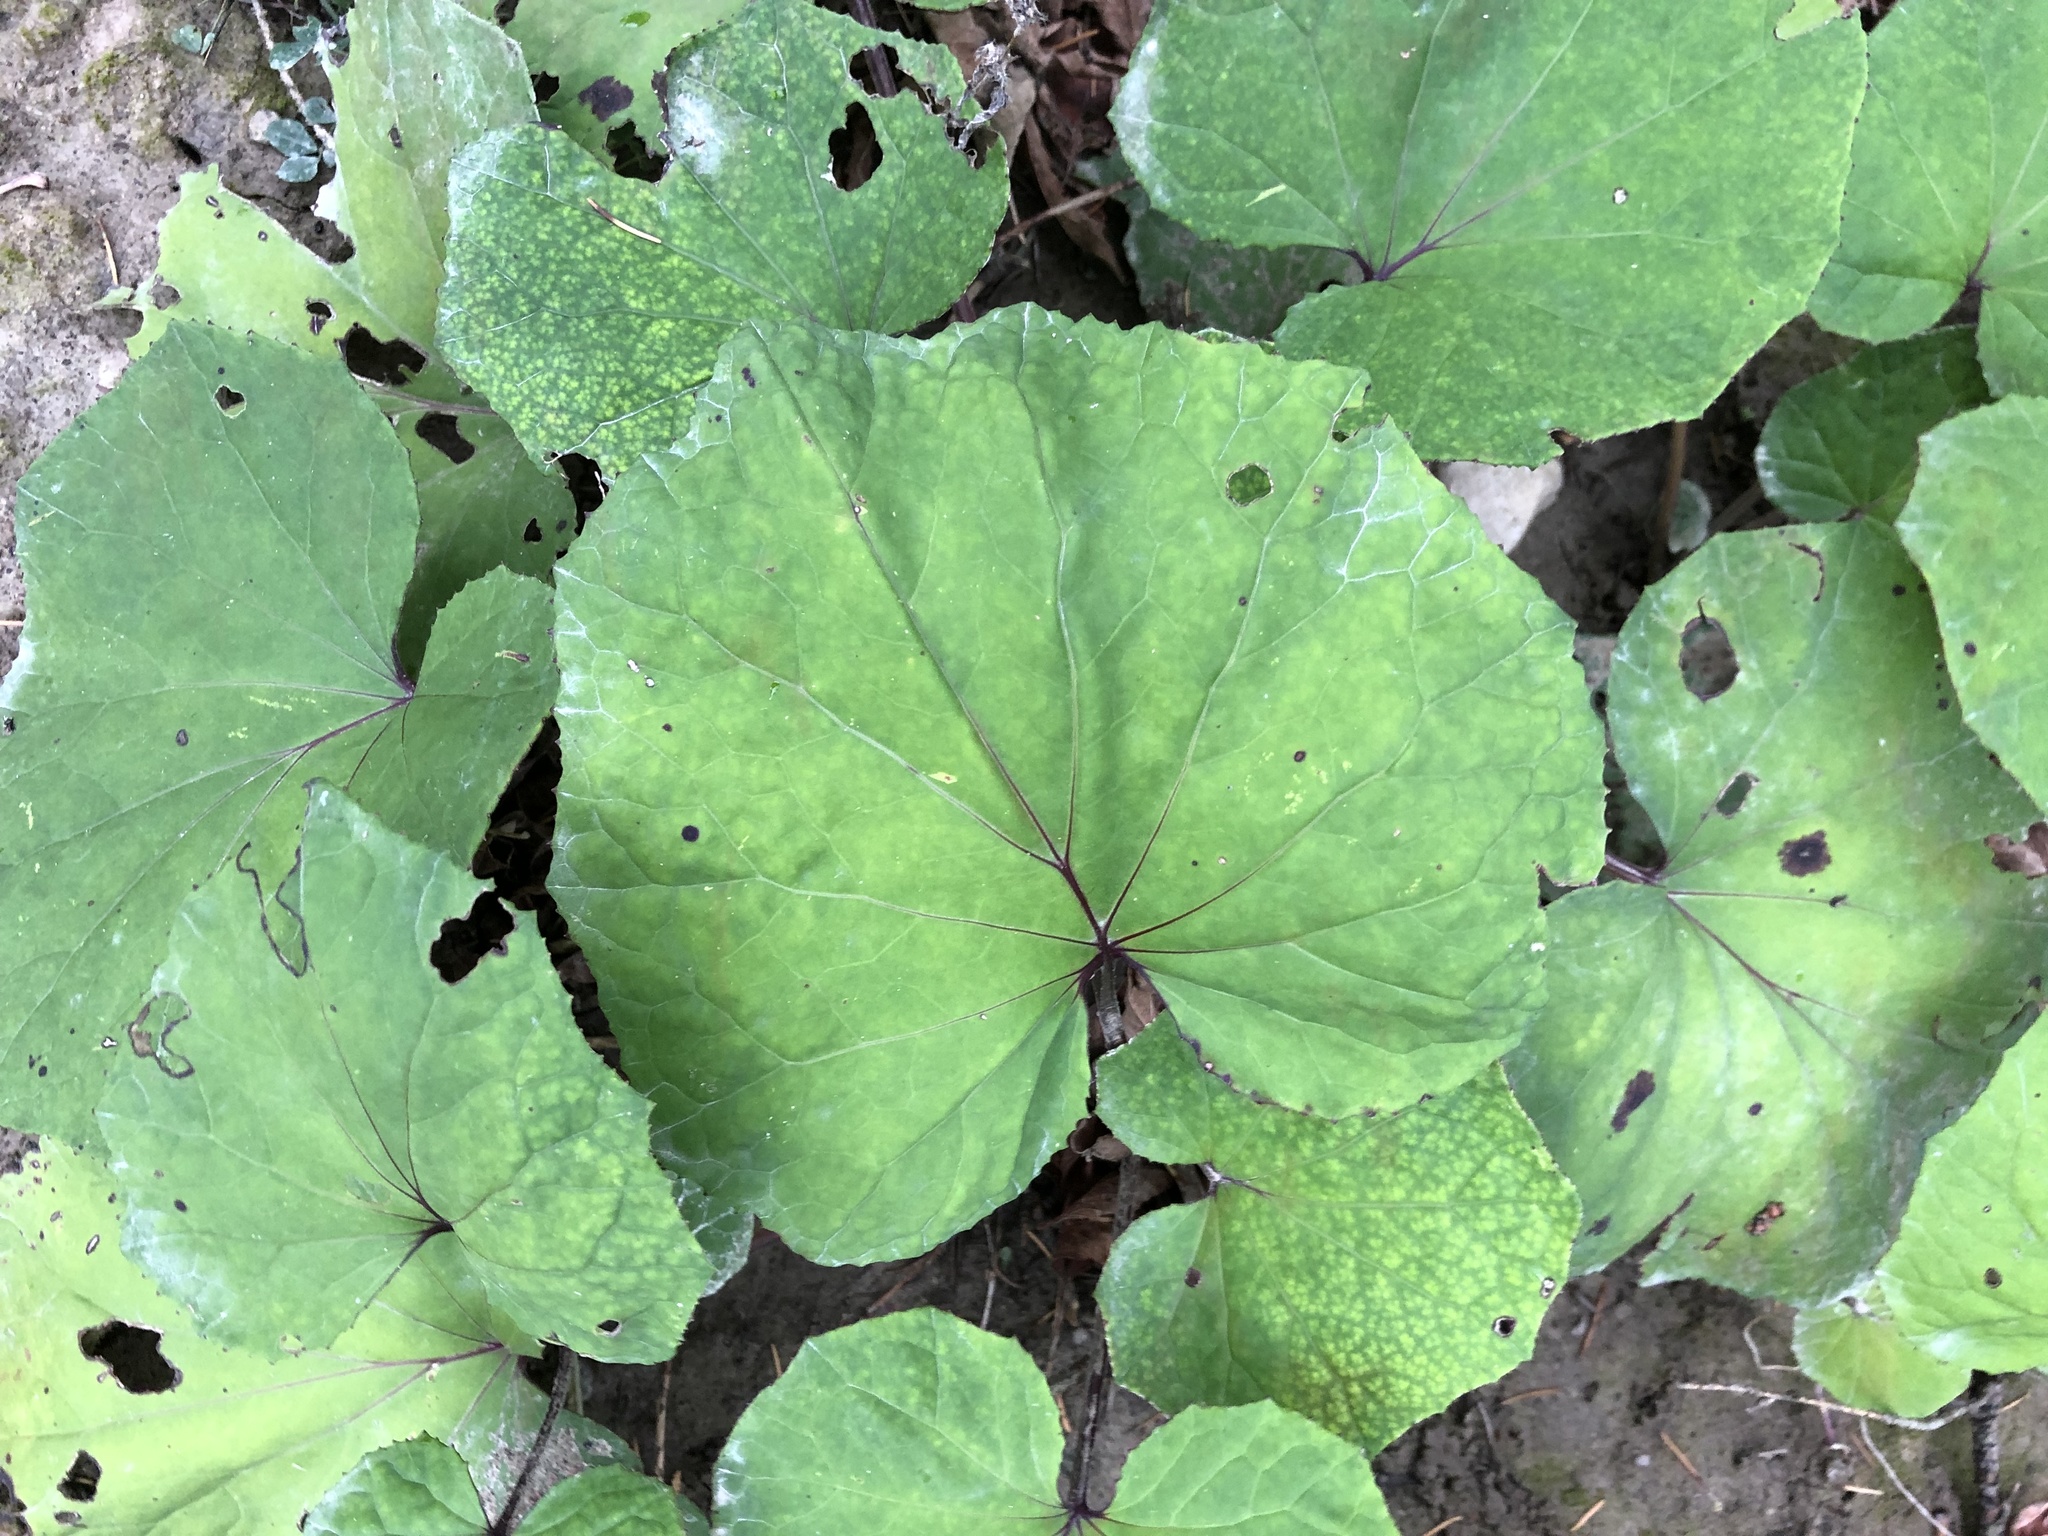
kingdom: Plantae
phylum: Tracheophyta
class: Magnoliopsida
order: Asterales
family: Asteraceae
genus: Tussilago
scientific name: Tussilago farfara
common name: Coltsfoot
